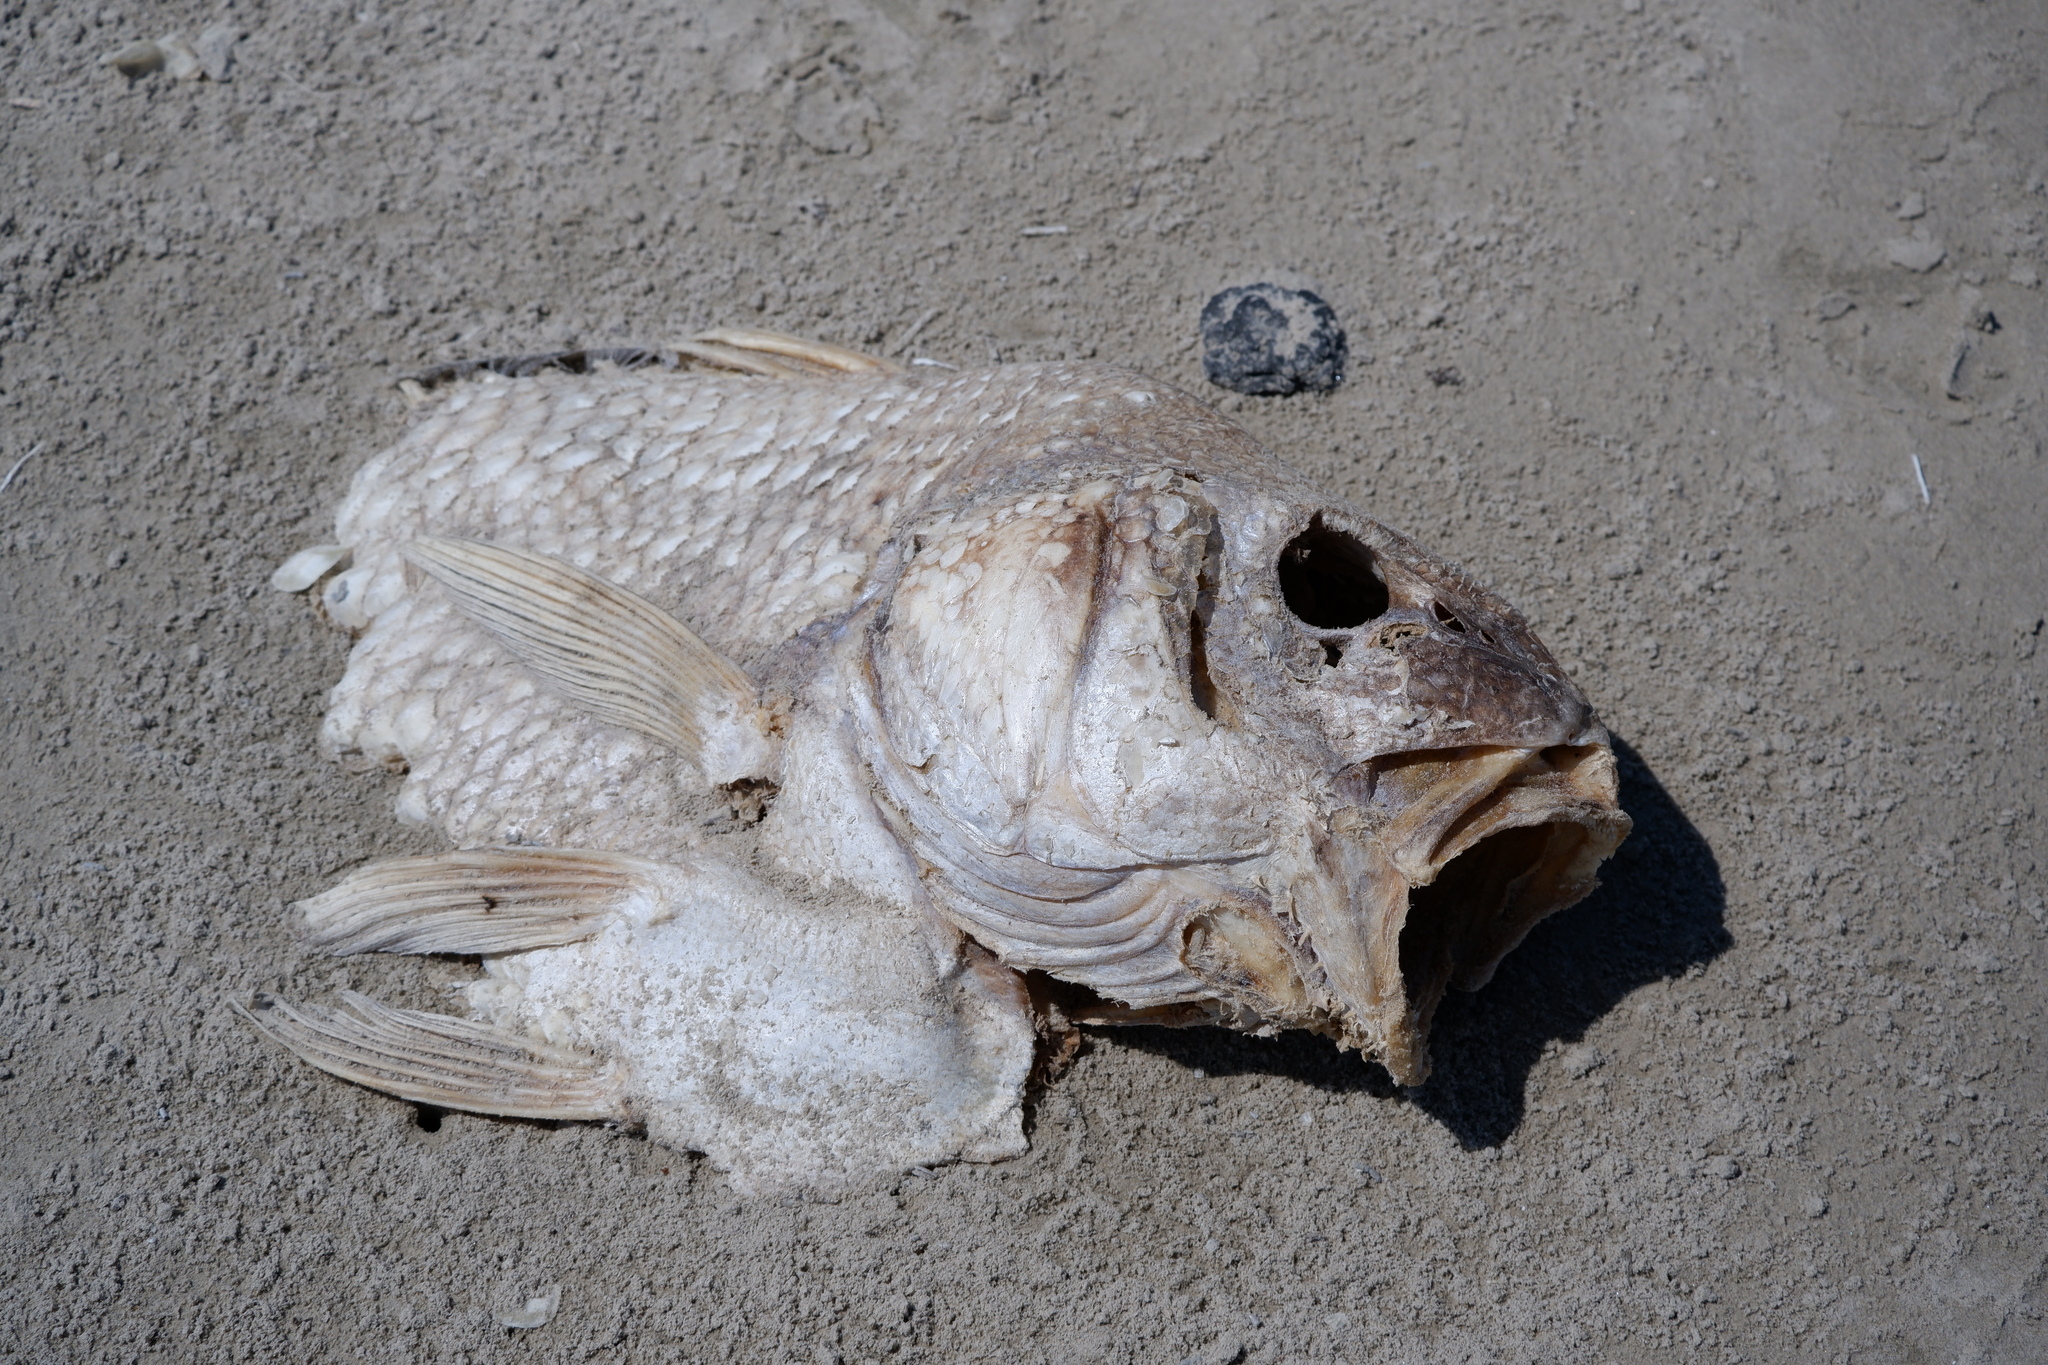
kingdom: Animalia
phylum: Chordata
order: Perciformes
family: Sciaenidae
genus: Pogonias
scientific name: Pogonias cromis
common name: Black drum
